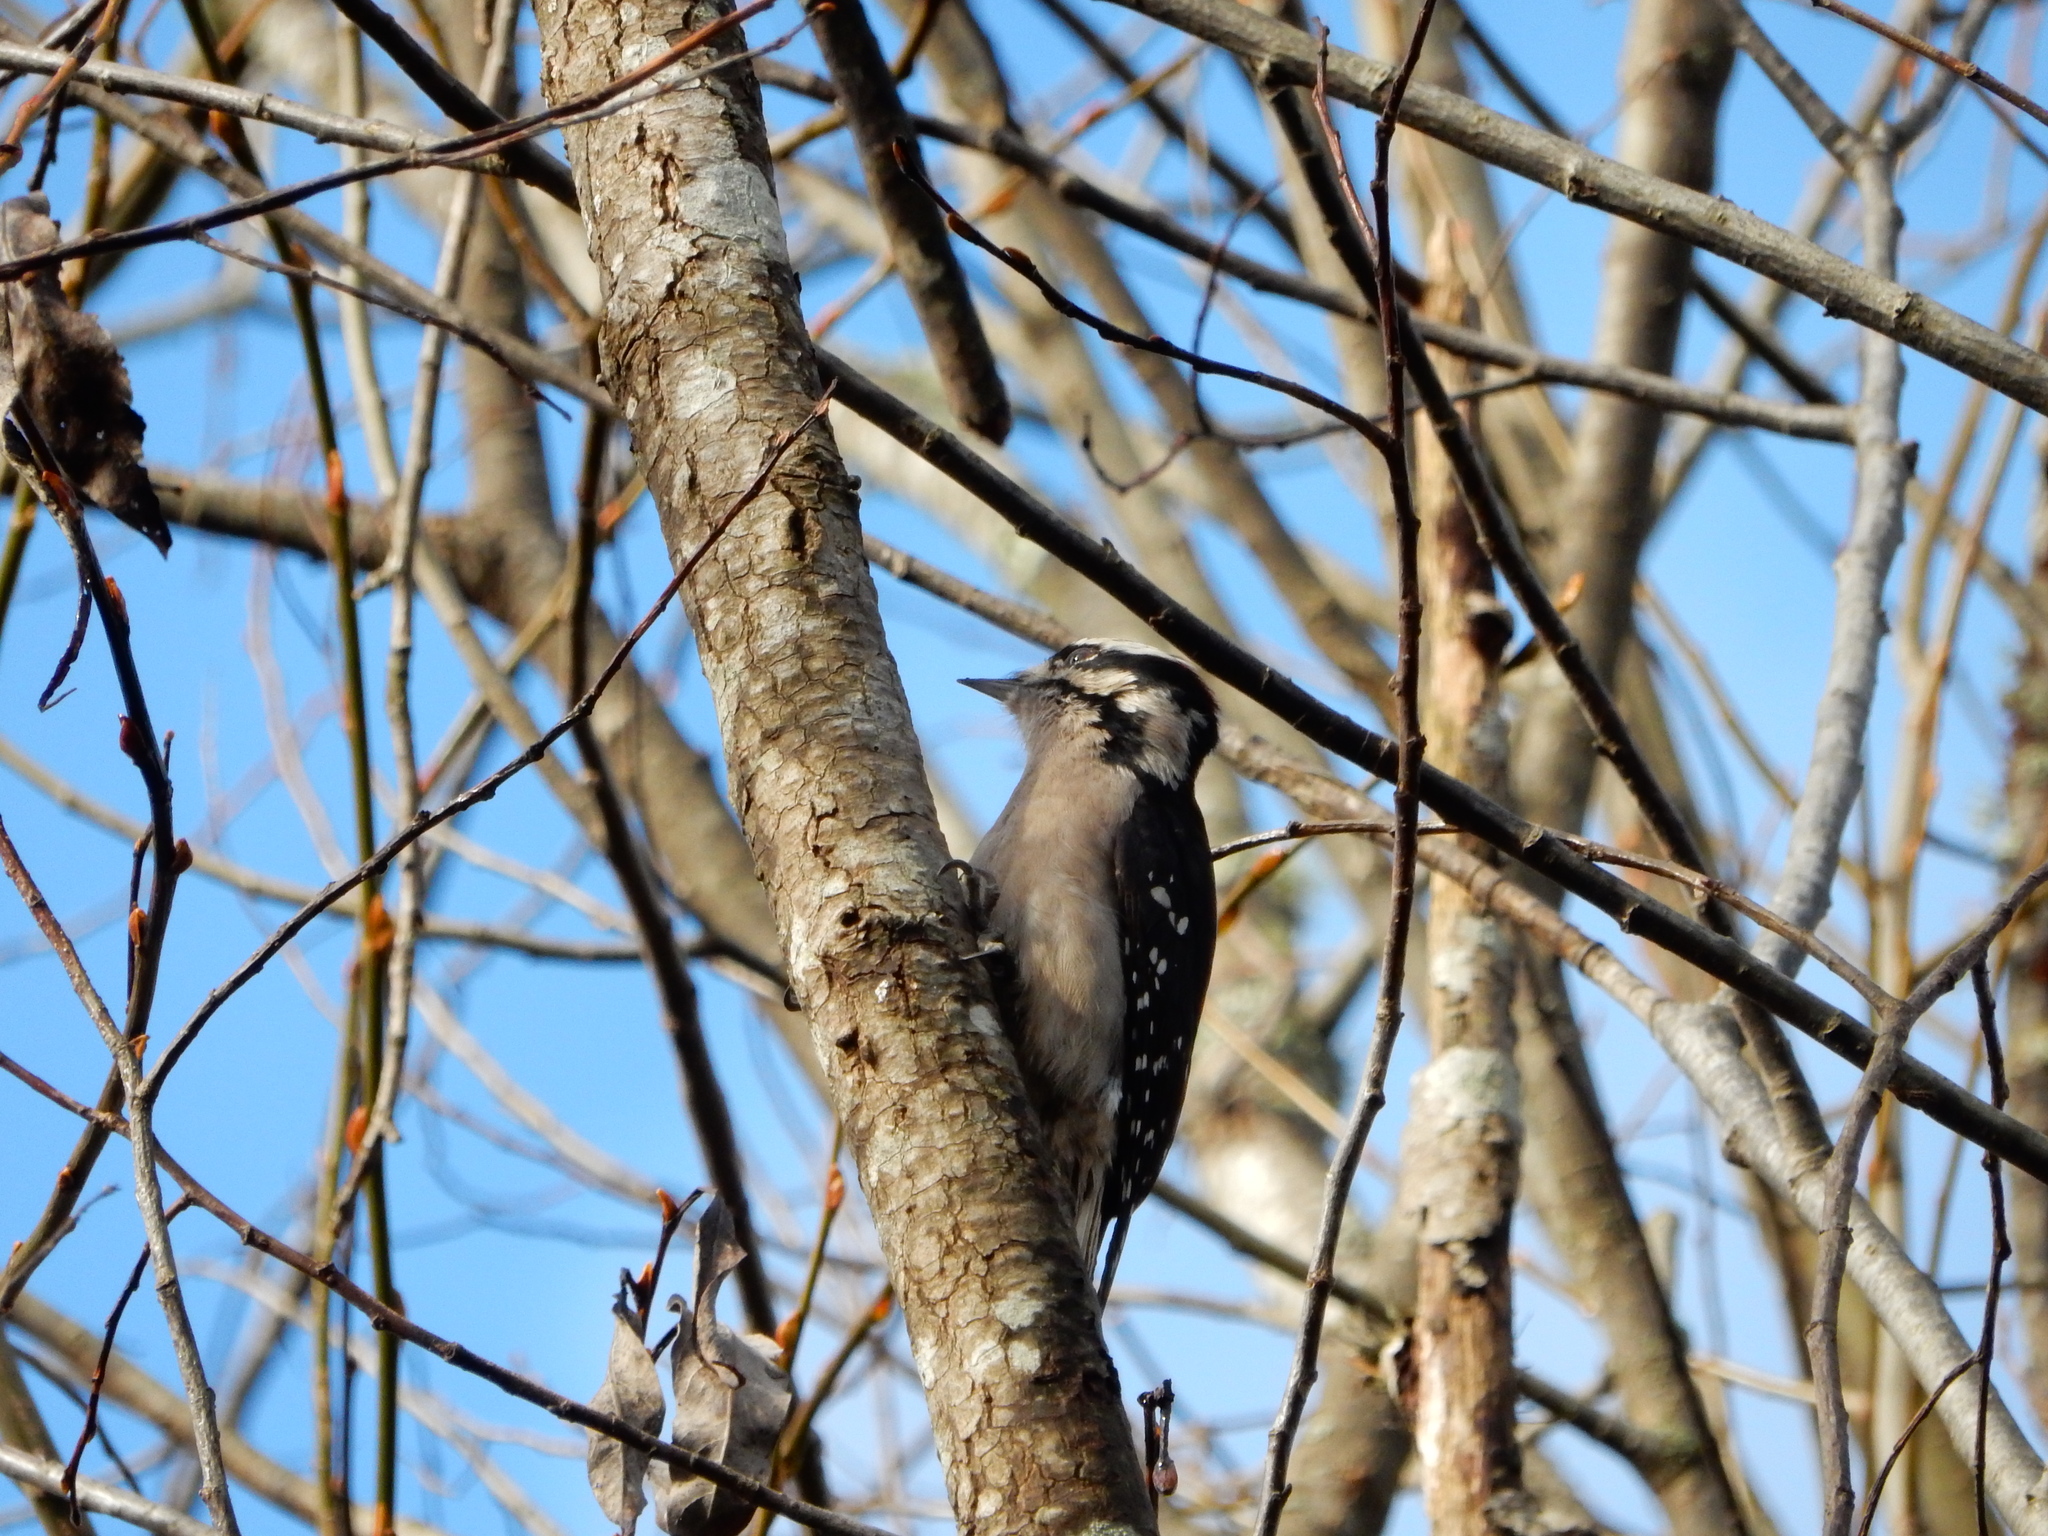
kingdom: Animalia
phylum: Chordata
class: Aves
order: Piciformes
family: Picidae
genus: Dryobates
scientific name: Dryobates pubescens
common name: Downy woodpecker
